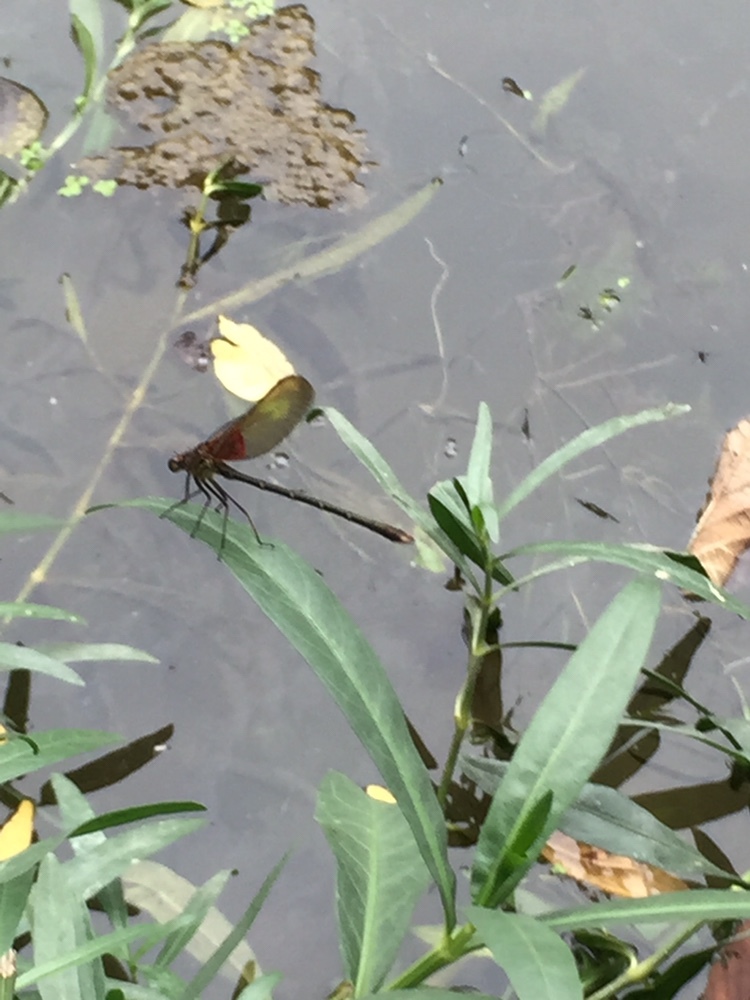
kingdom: Animalia
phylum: Arthropoda
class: Insecta
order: Odonata
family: Calopterygidae
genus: Hetaerina
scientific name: Hetaerina americana
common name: American rubyspot
